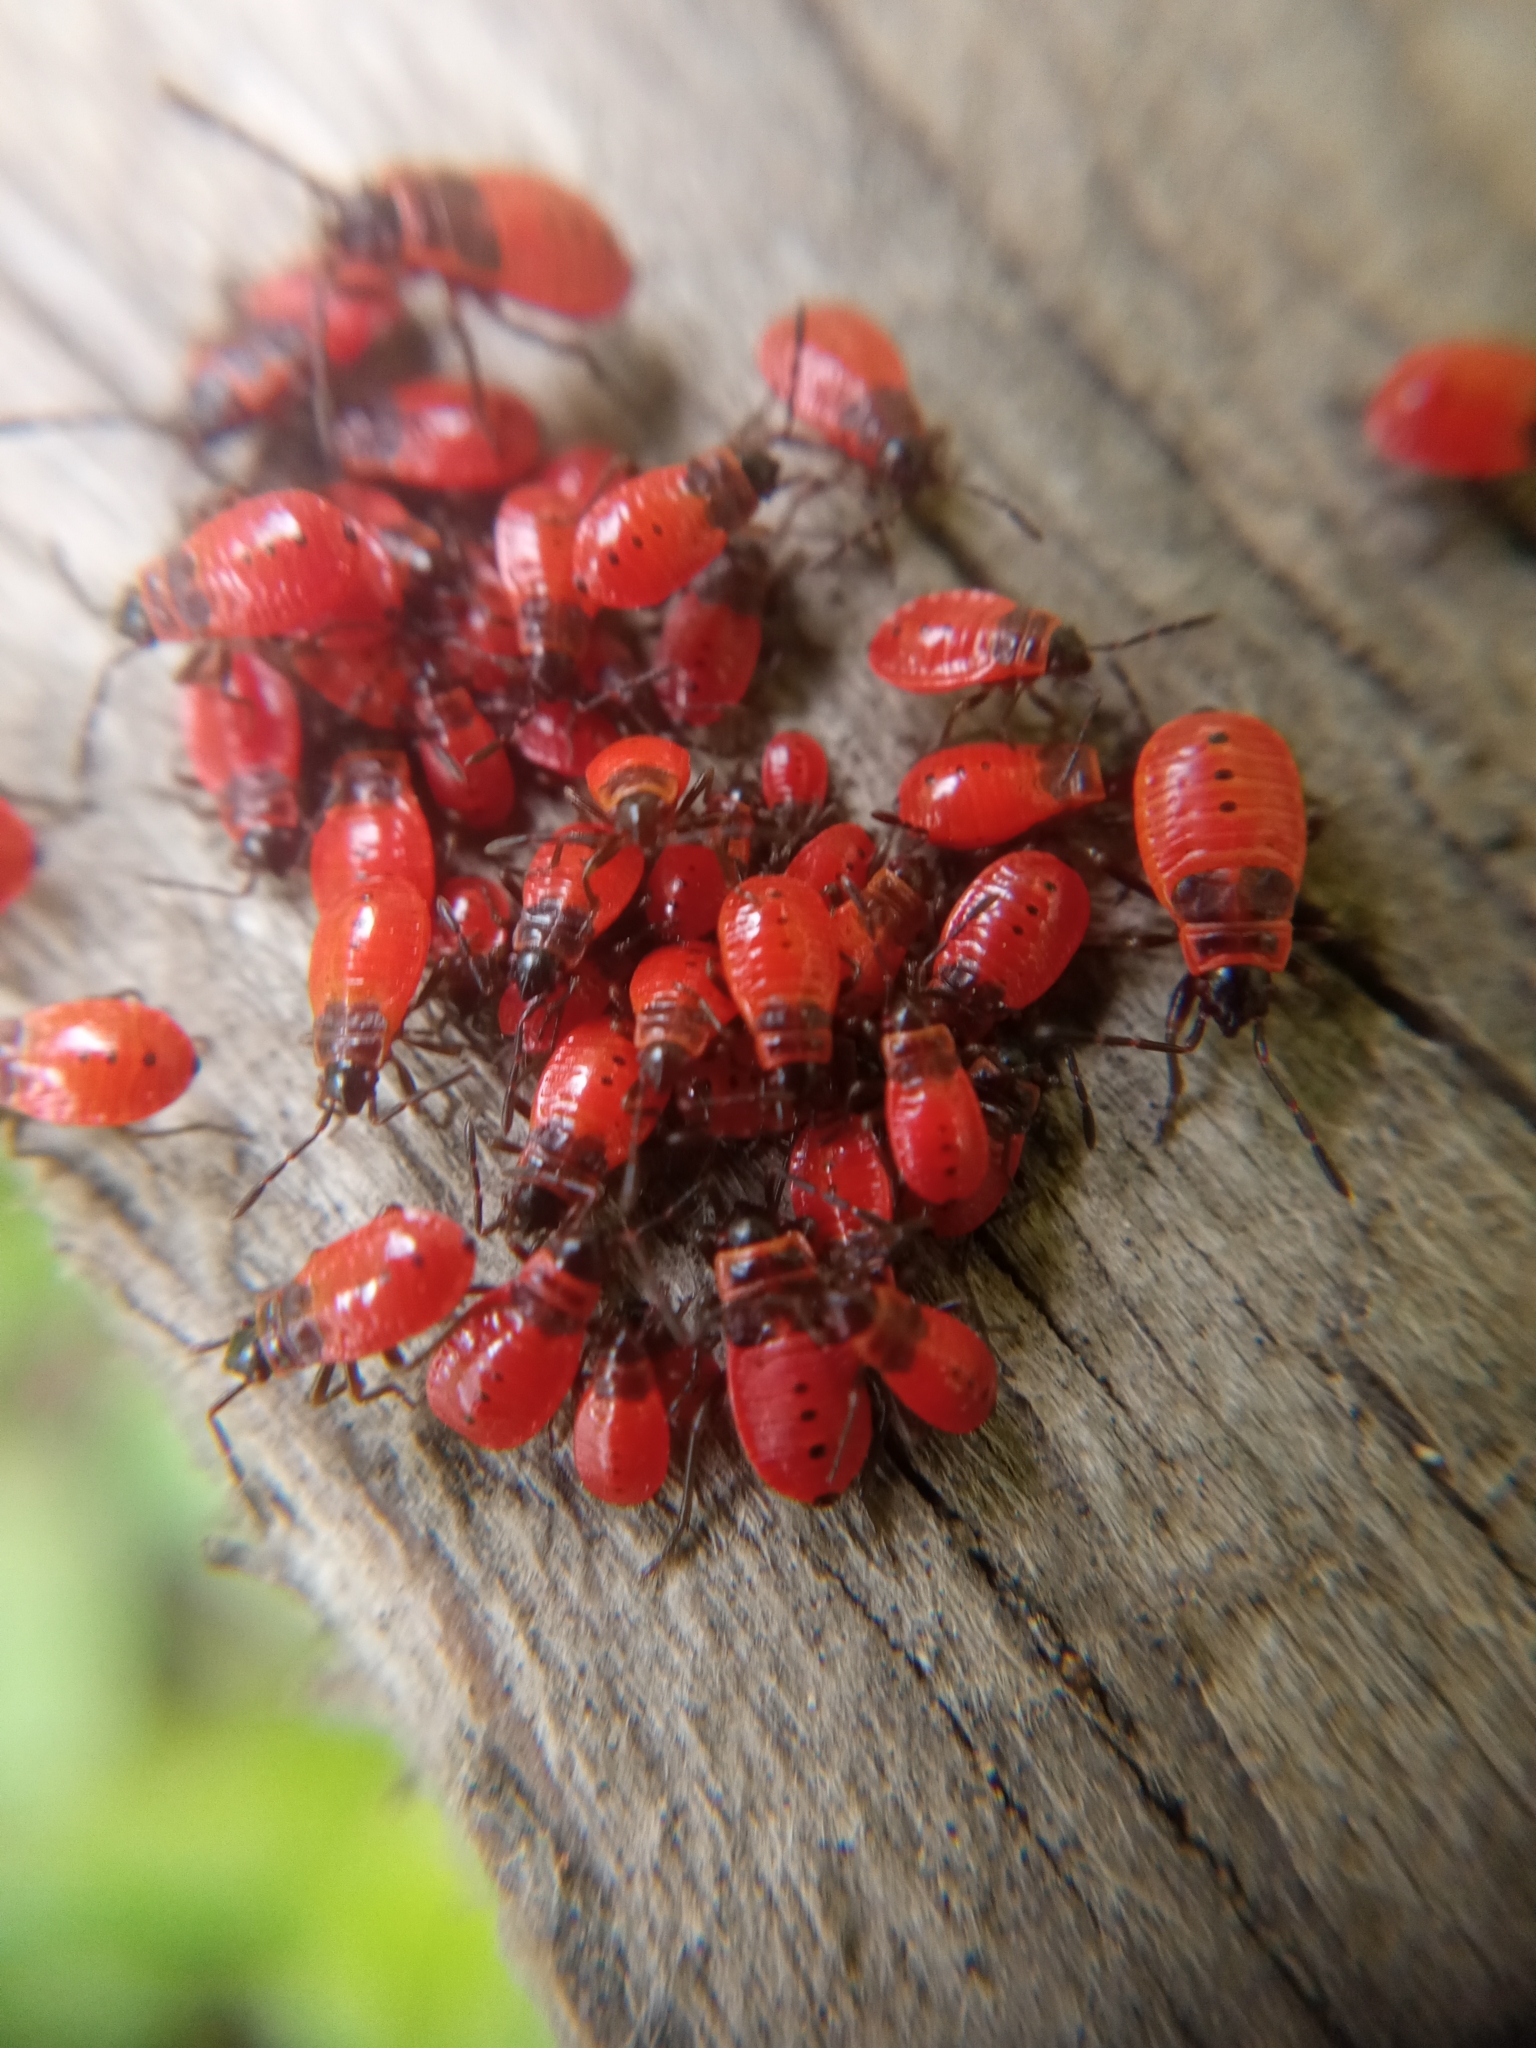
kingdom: Animalia
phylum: Arthropoda
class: Insecta
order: Hemiptera
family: Pyrrhocoridae
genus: Pyrrhocoris
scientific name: Pyrrhocoris apterus
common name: Firebug
